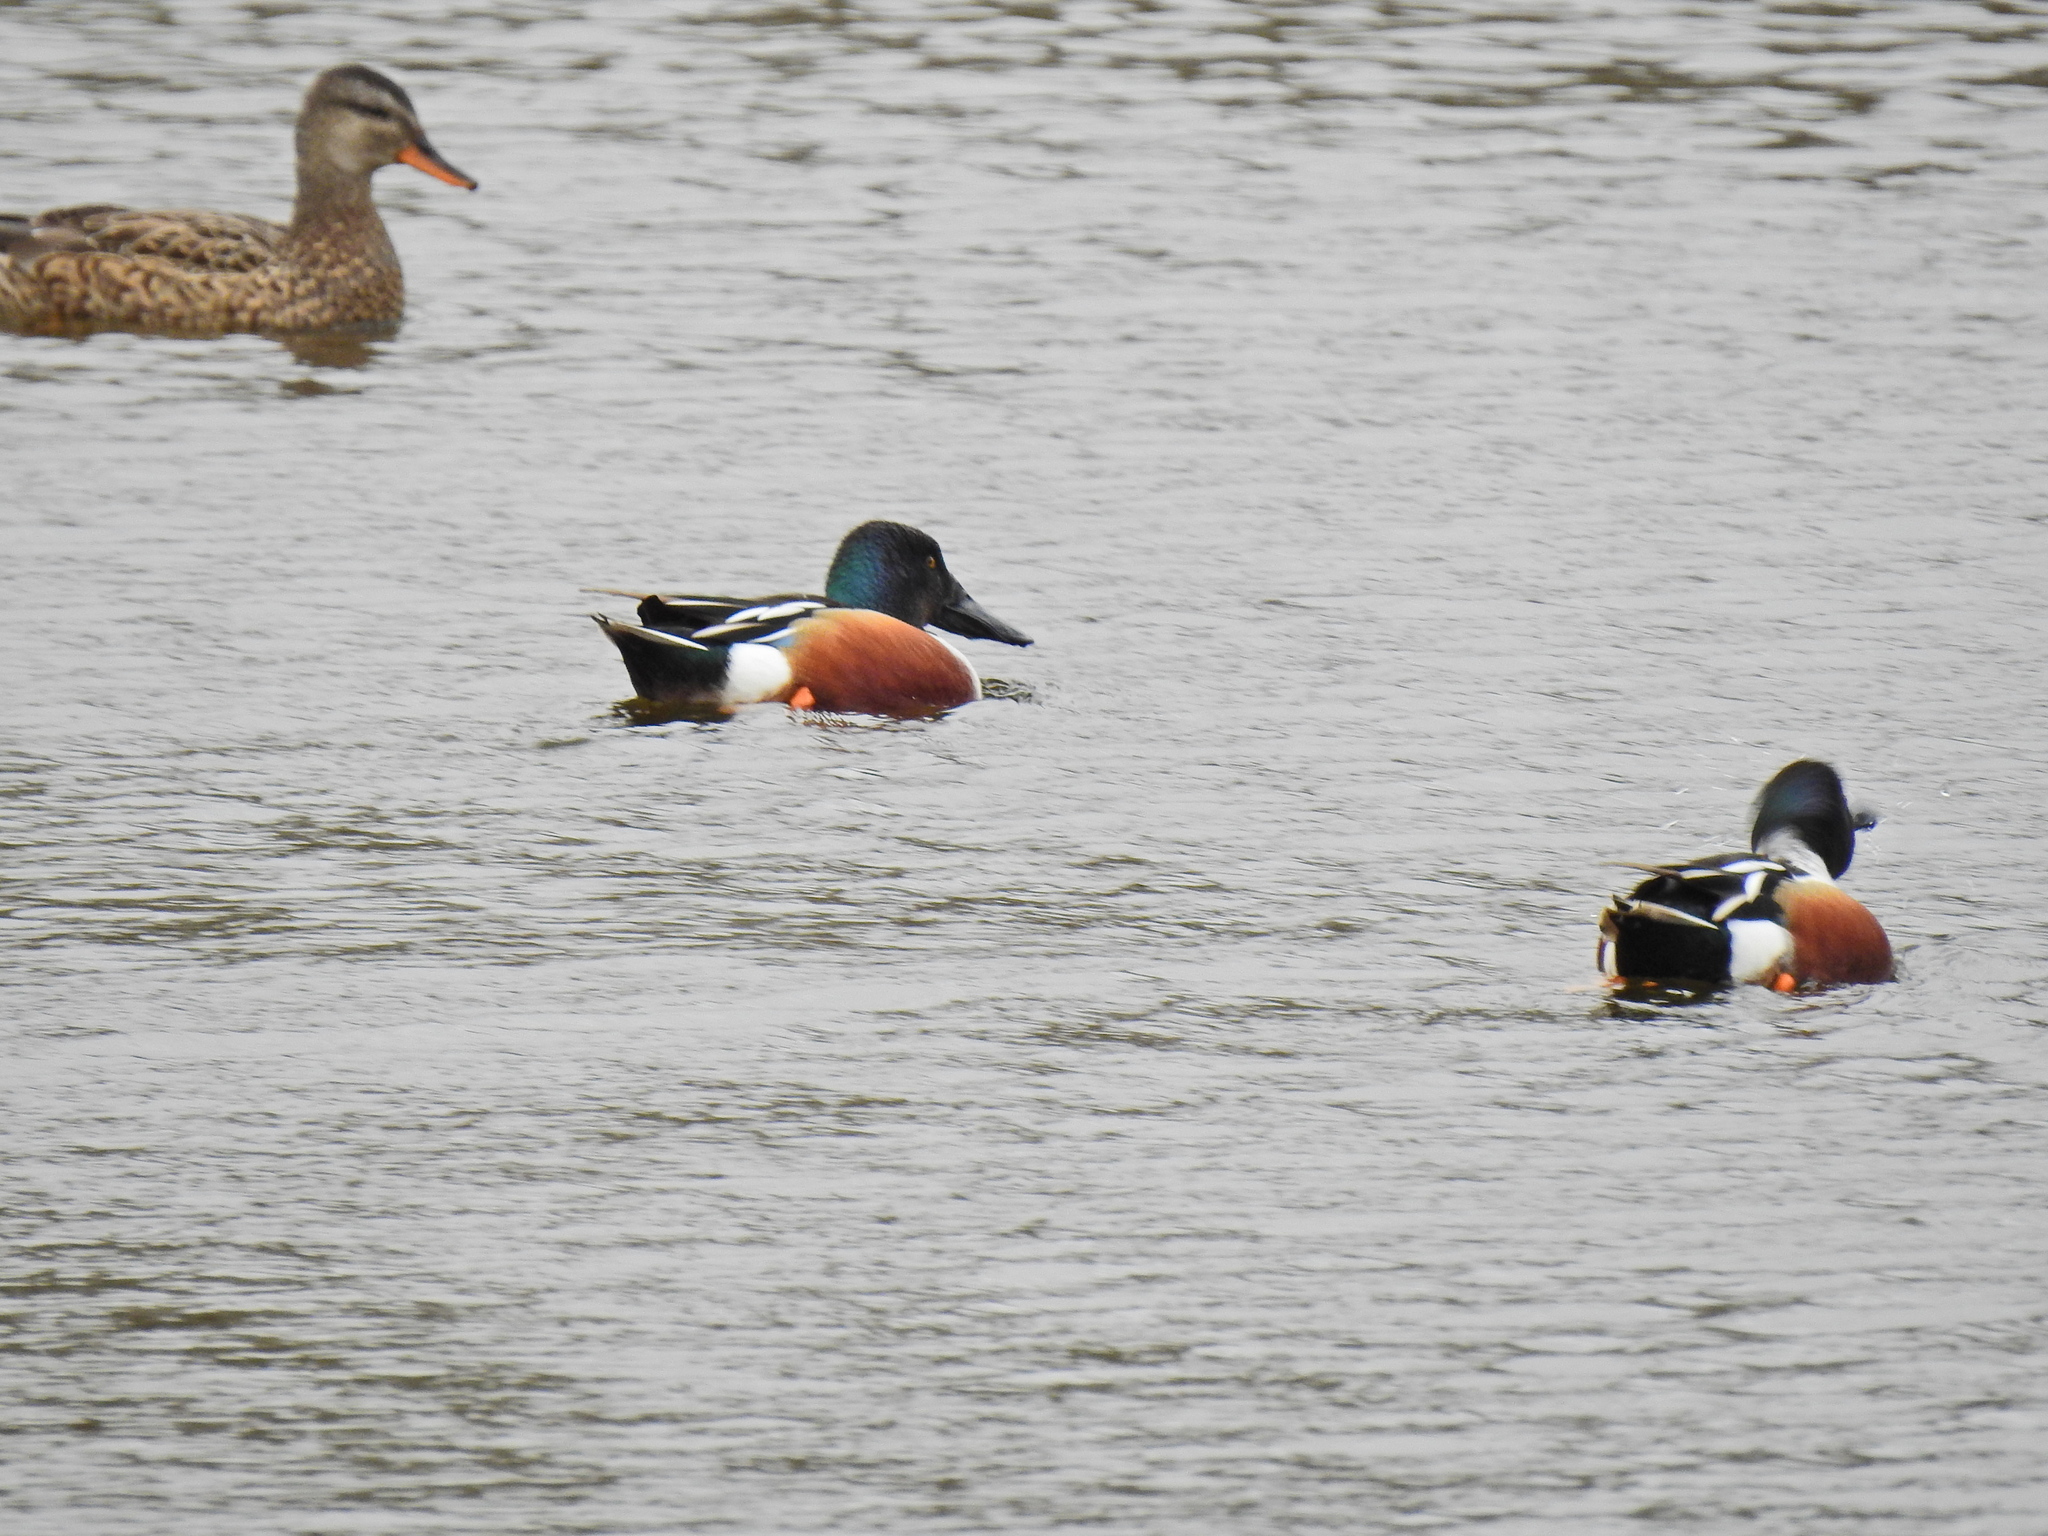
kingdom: Animalia
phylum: Chordata
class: Aves
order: Anseriformes
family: Anatidae
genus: Spatula
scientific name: Spatula clypeata
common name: Northern shoveler
